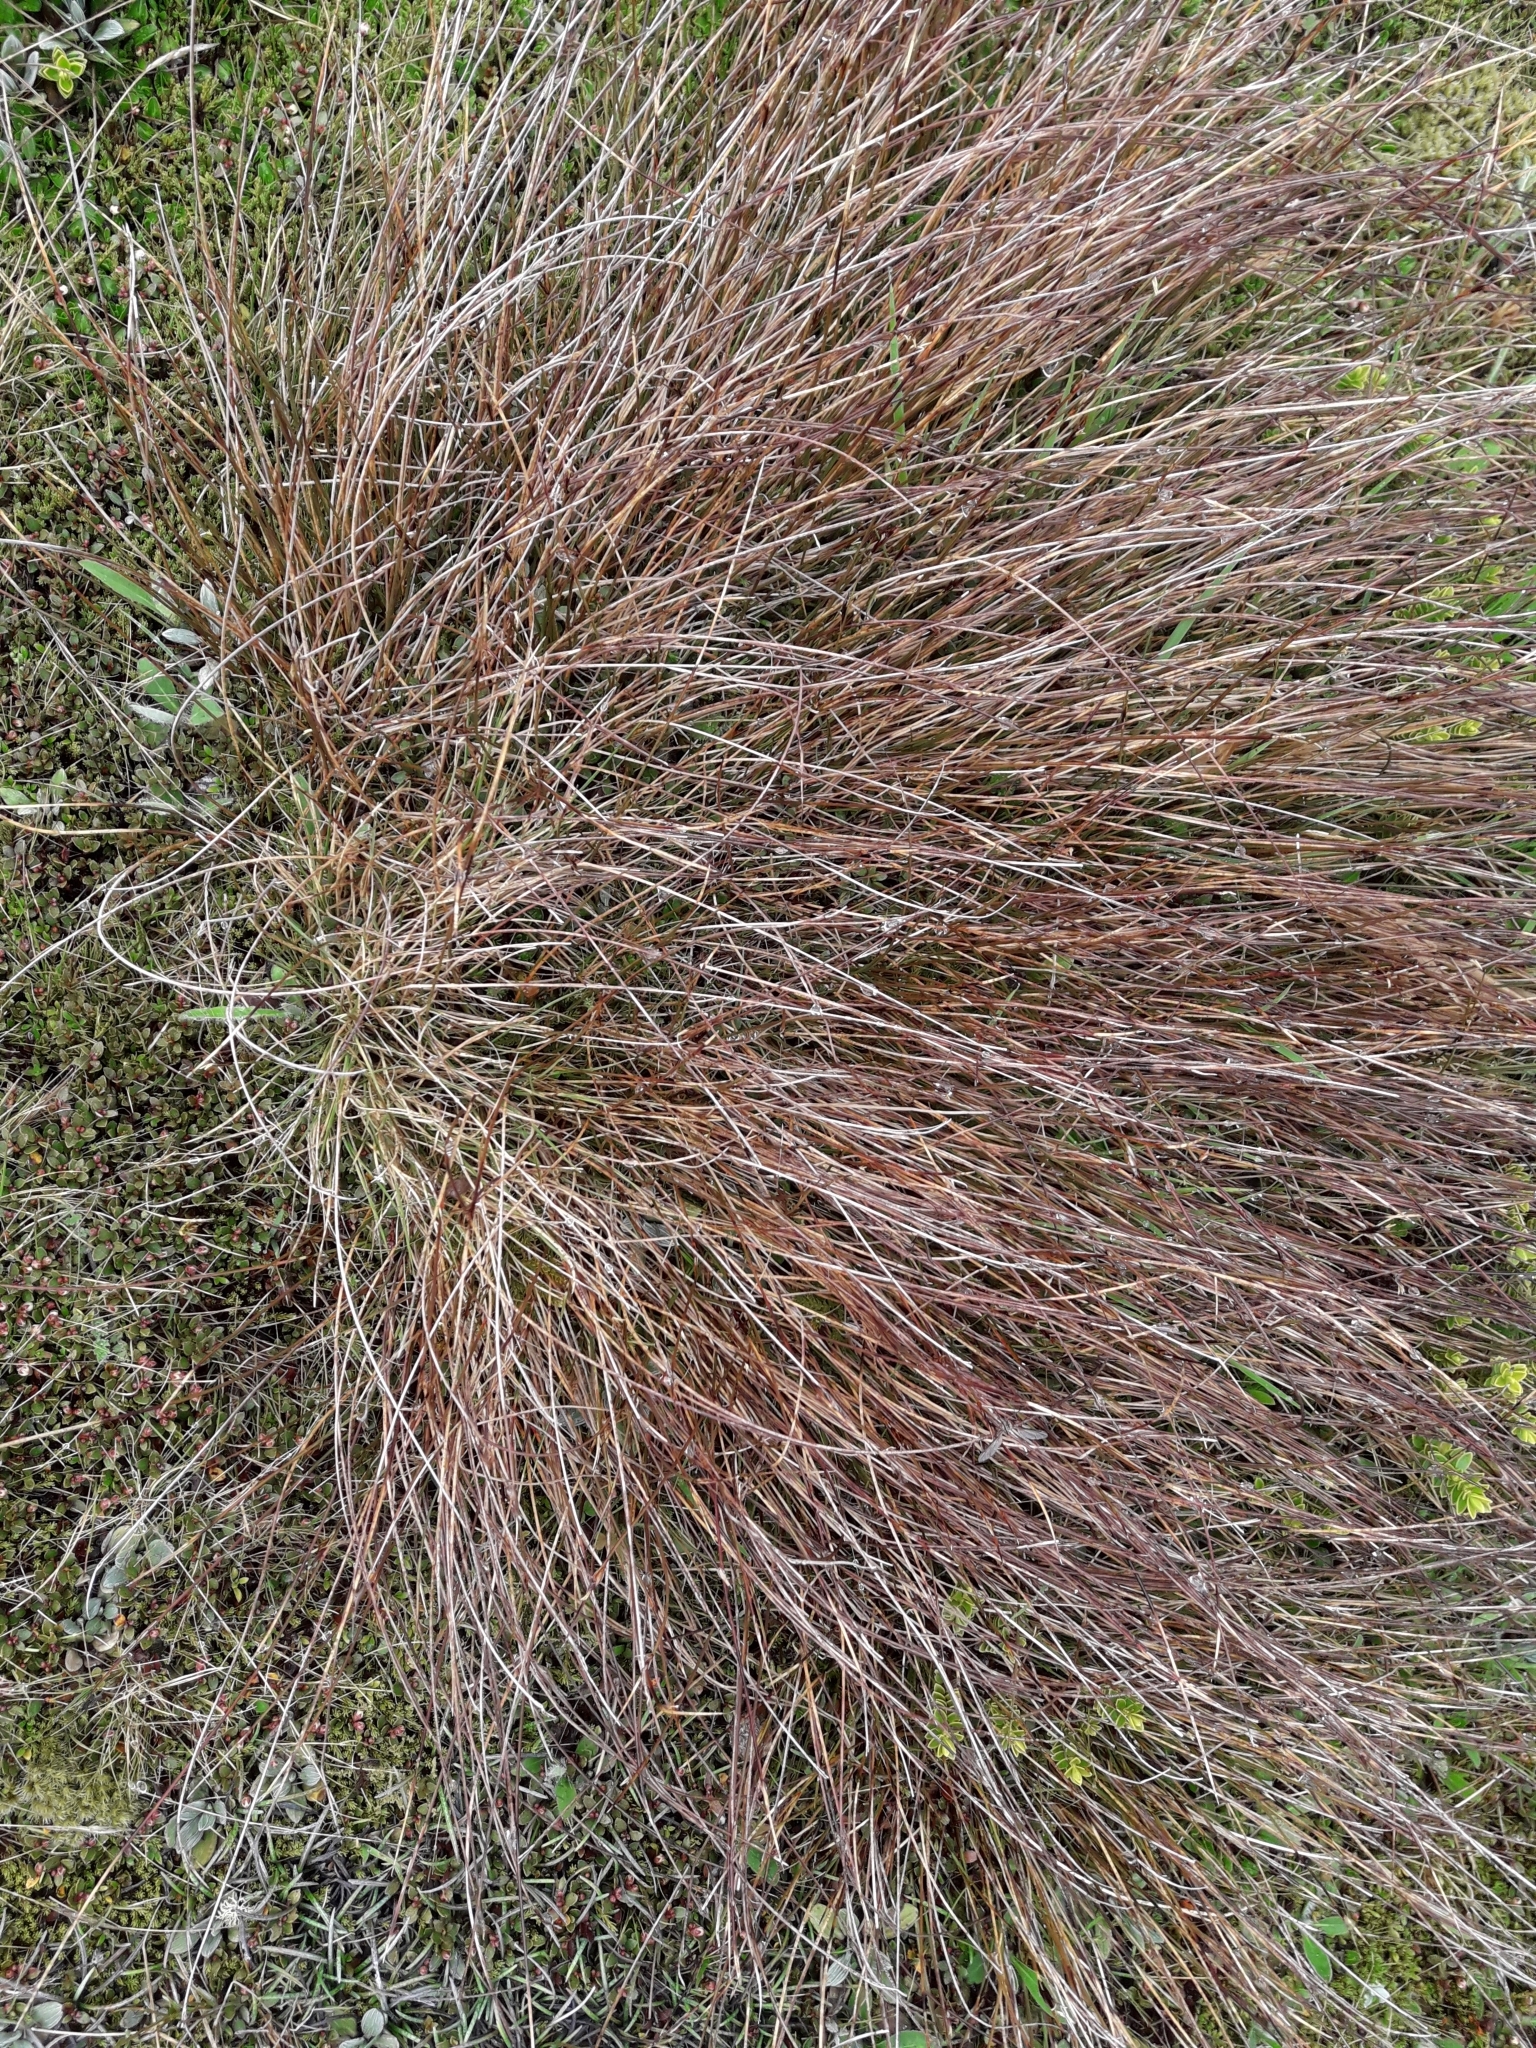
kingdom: Plantae
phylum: Tracheophyta
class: Liliopsida
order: Poales
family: Cyperaceae
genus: Schoenus
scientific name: Schoenus pauciflorus
